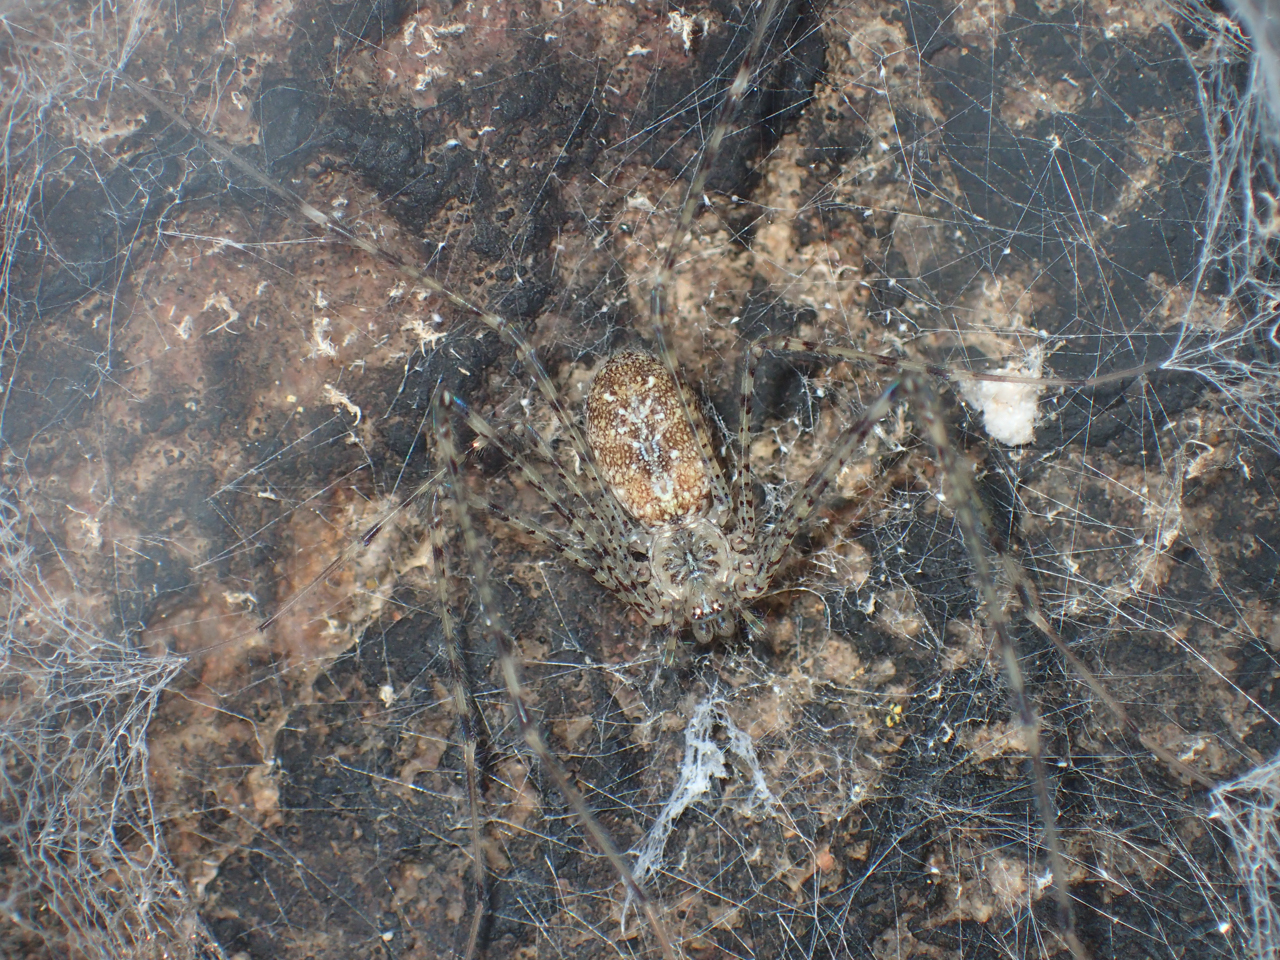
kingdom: Animalia
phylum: Arthropoda
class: Arachnida
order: Araneae
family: Hypochilidae
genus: Hypochilus
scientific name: Hypochilus thorelli
